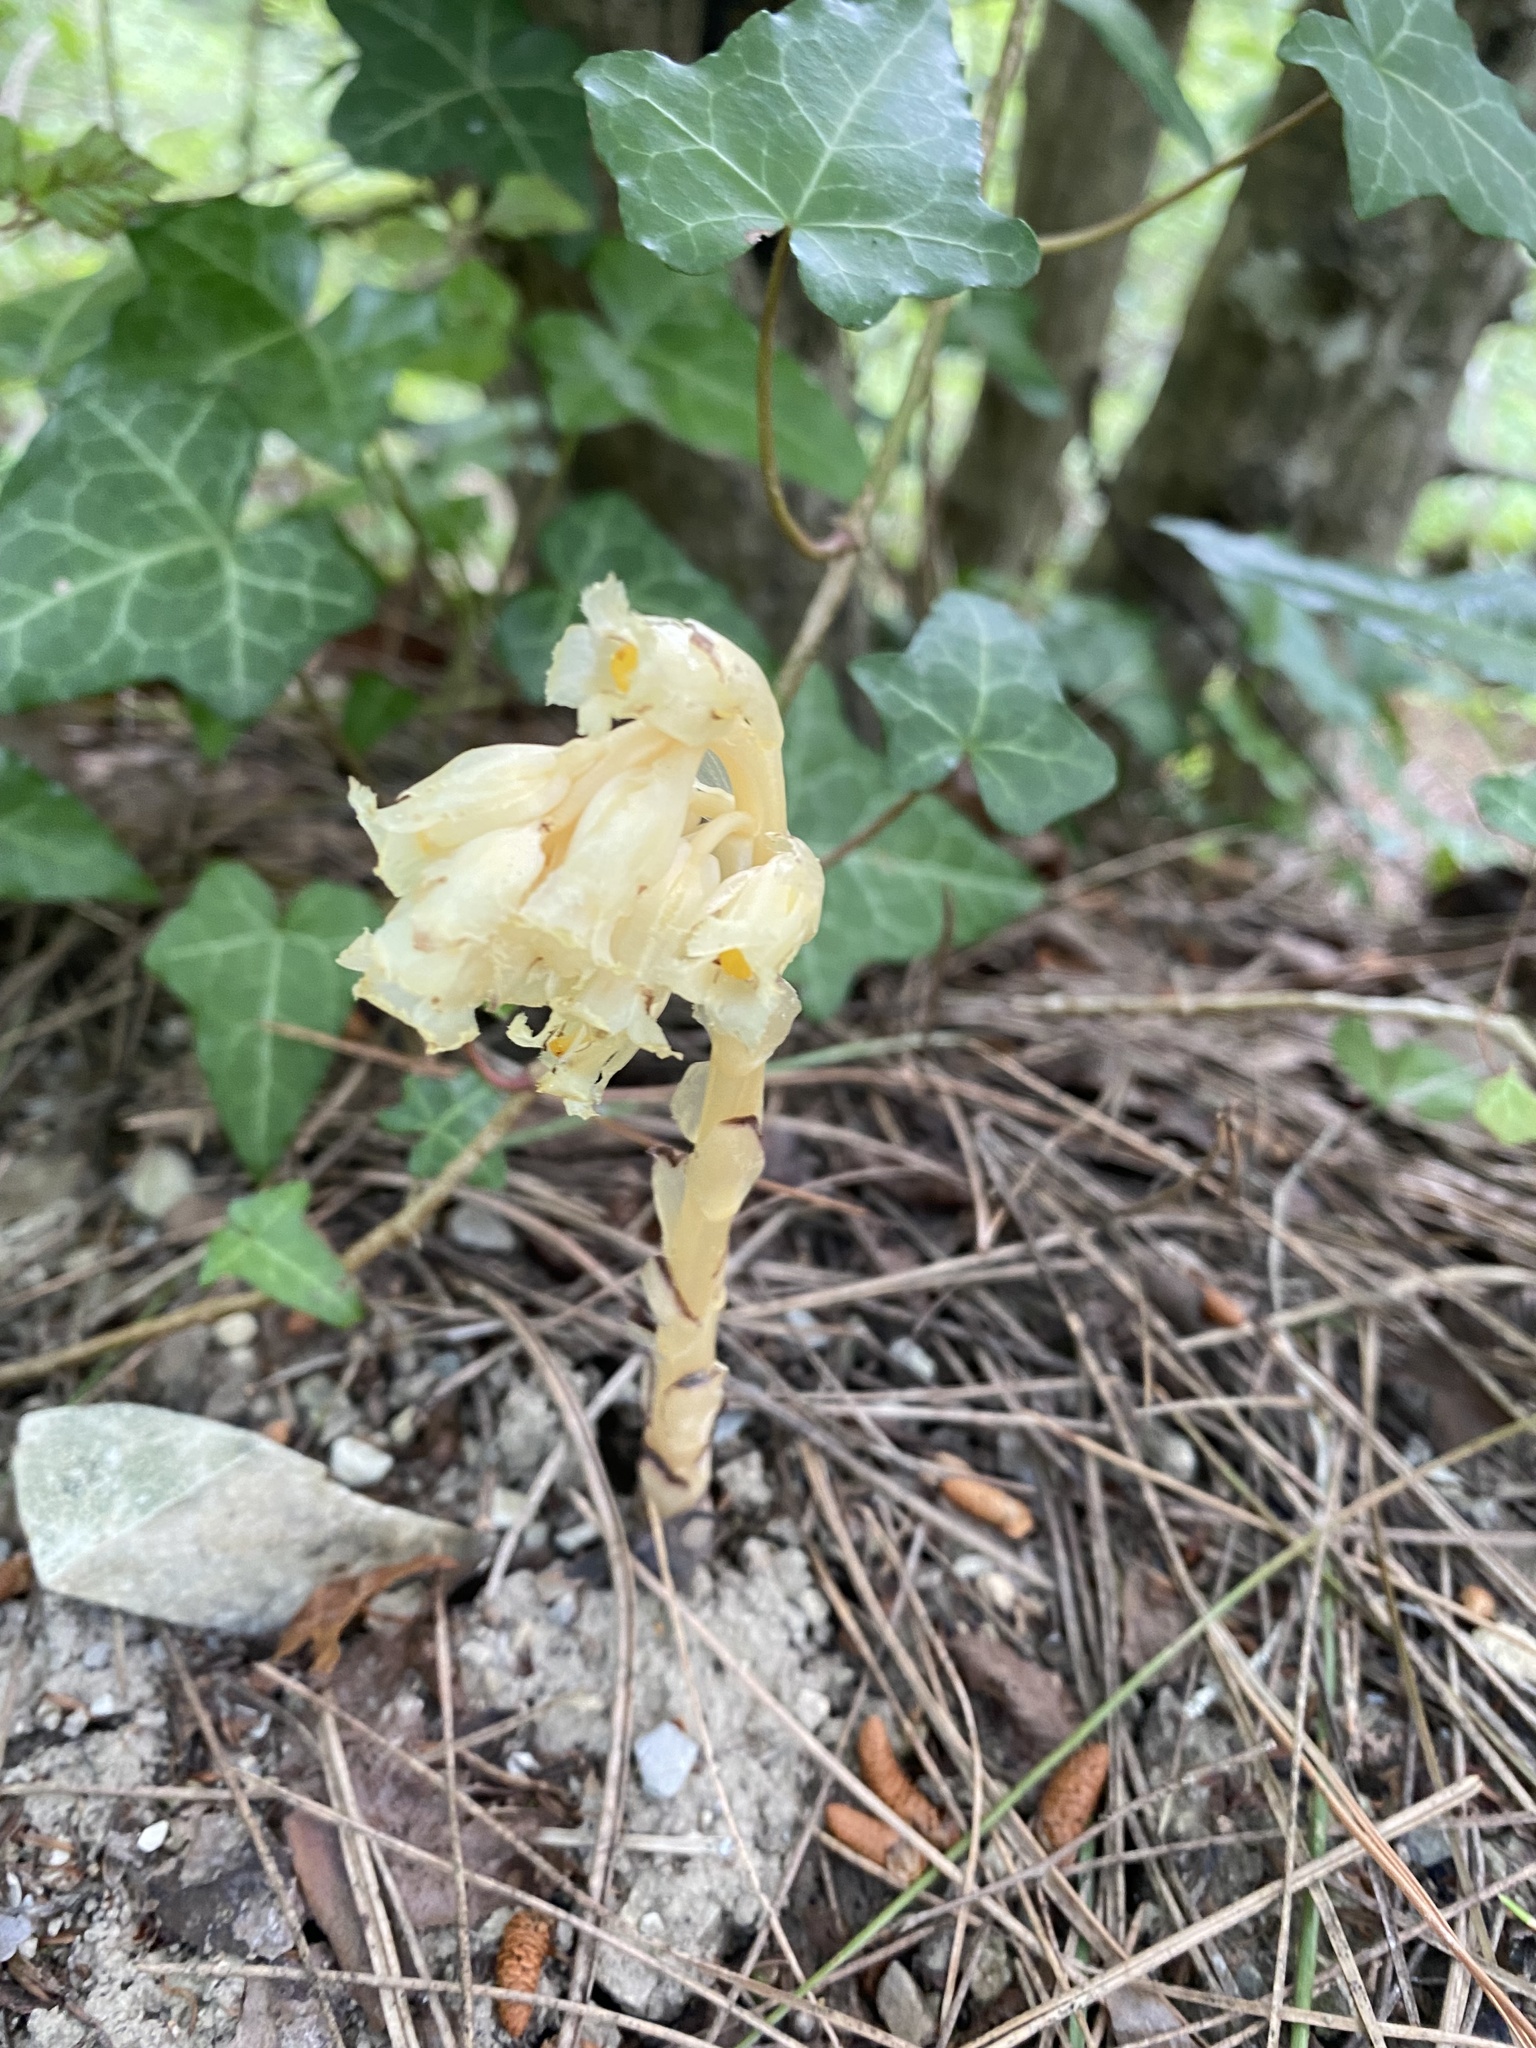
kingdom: Plantae
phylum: Tracheophyta
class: Magnoliopsida
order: Ericales
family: Ericaceae
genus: Hypopitys
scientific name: Hypopitys monotropa
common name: Yellow bird's-nest
